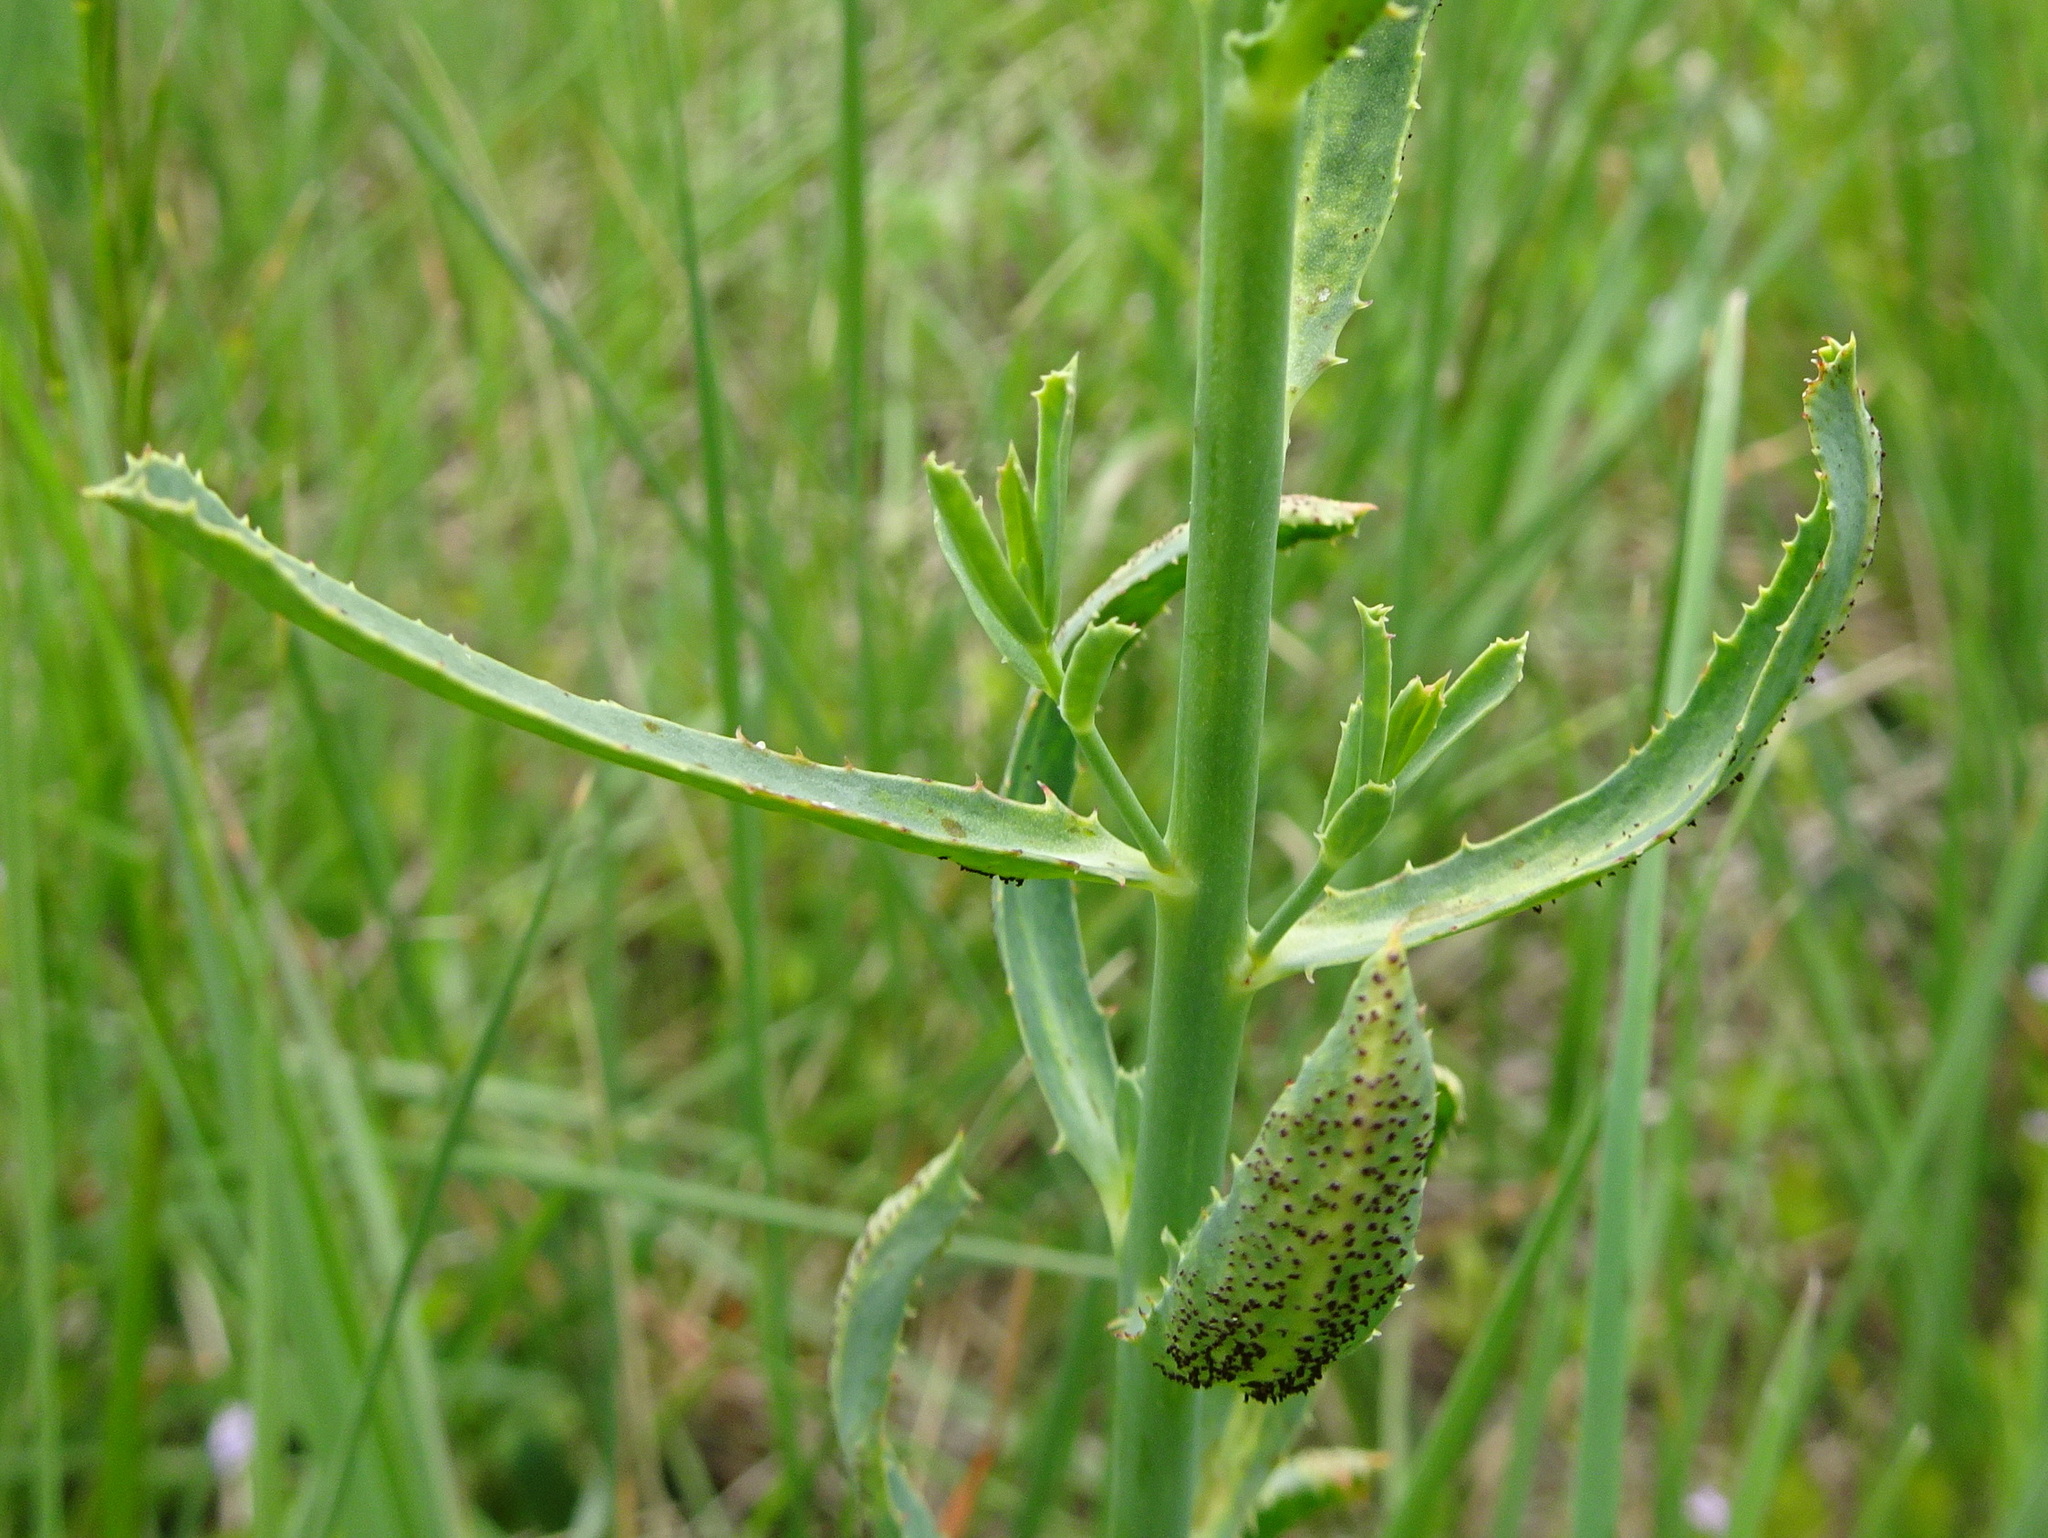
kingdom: Plantae
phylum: Tracheophyta
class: Magnoliopsida
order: Malpighiales
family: Euphorbiaceae
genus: Euphorbia
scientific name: Euphorbia serrata
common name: Serrate spurge
